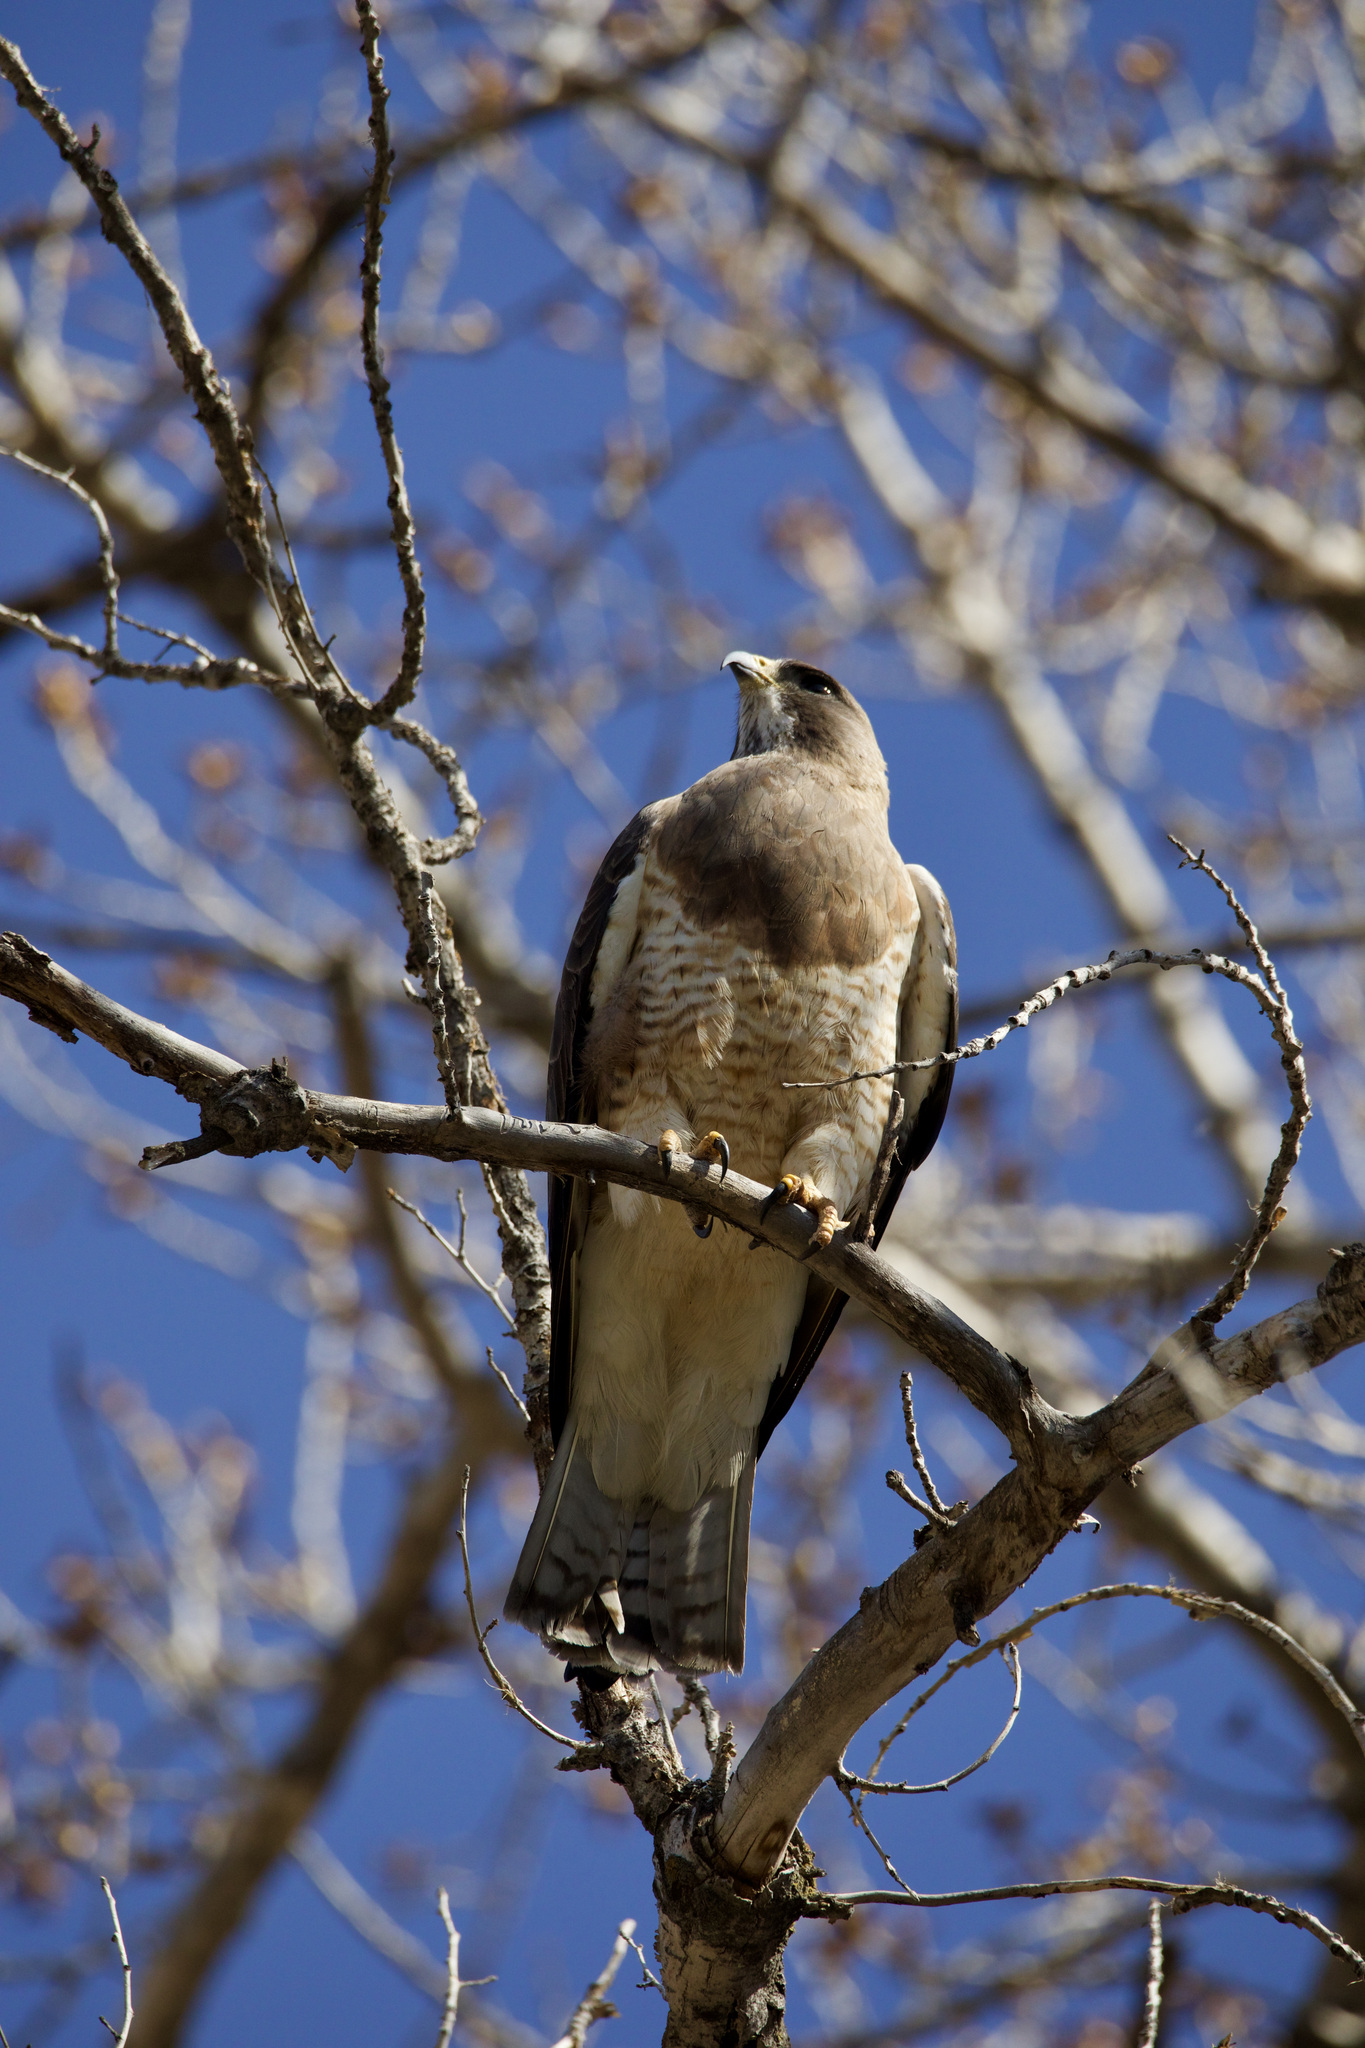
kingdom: Animalia
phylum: Chordata
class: Aves
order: Accipitriformes
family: Accipitridae
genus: Buteo
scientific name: Buteo swainsoni
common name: Swainson's hawk
